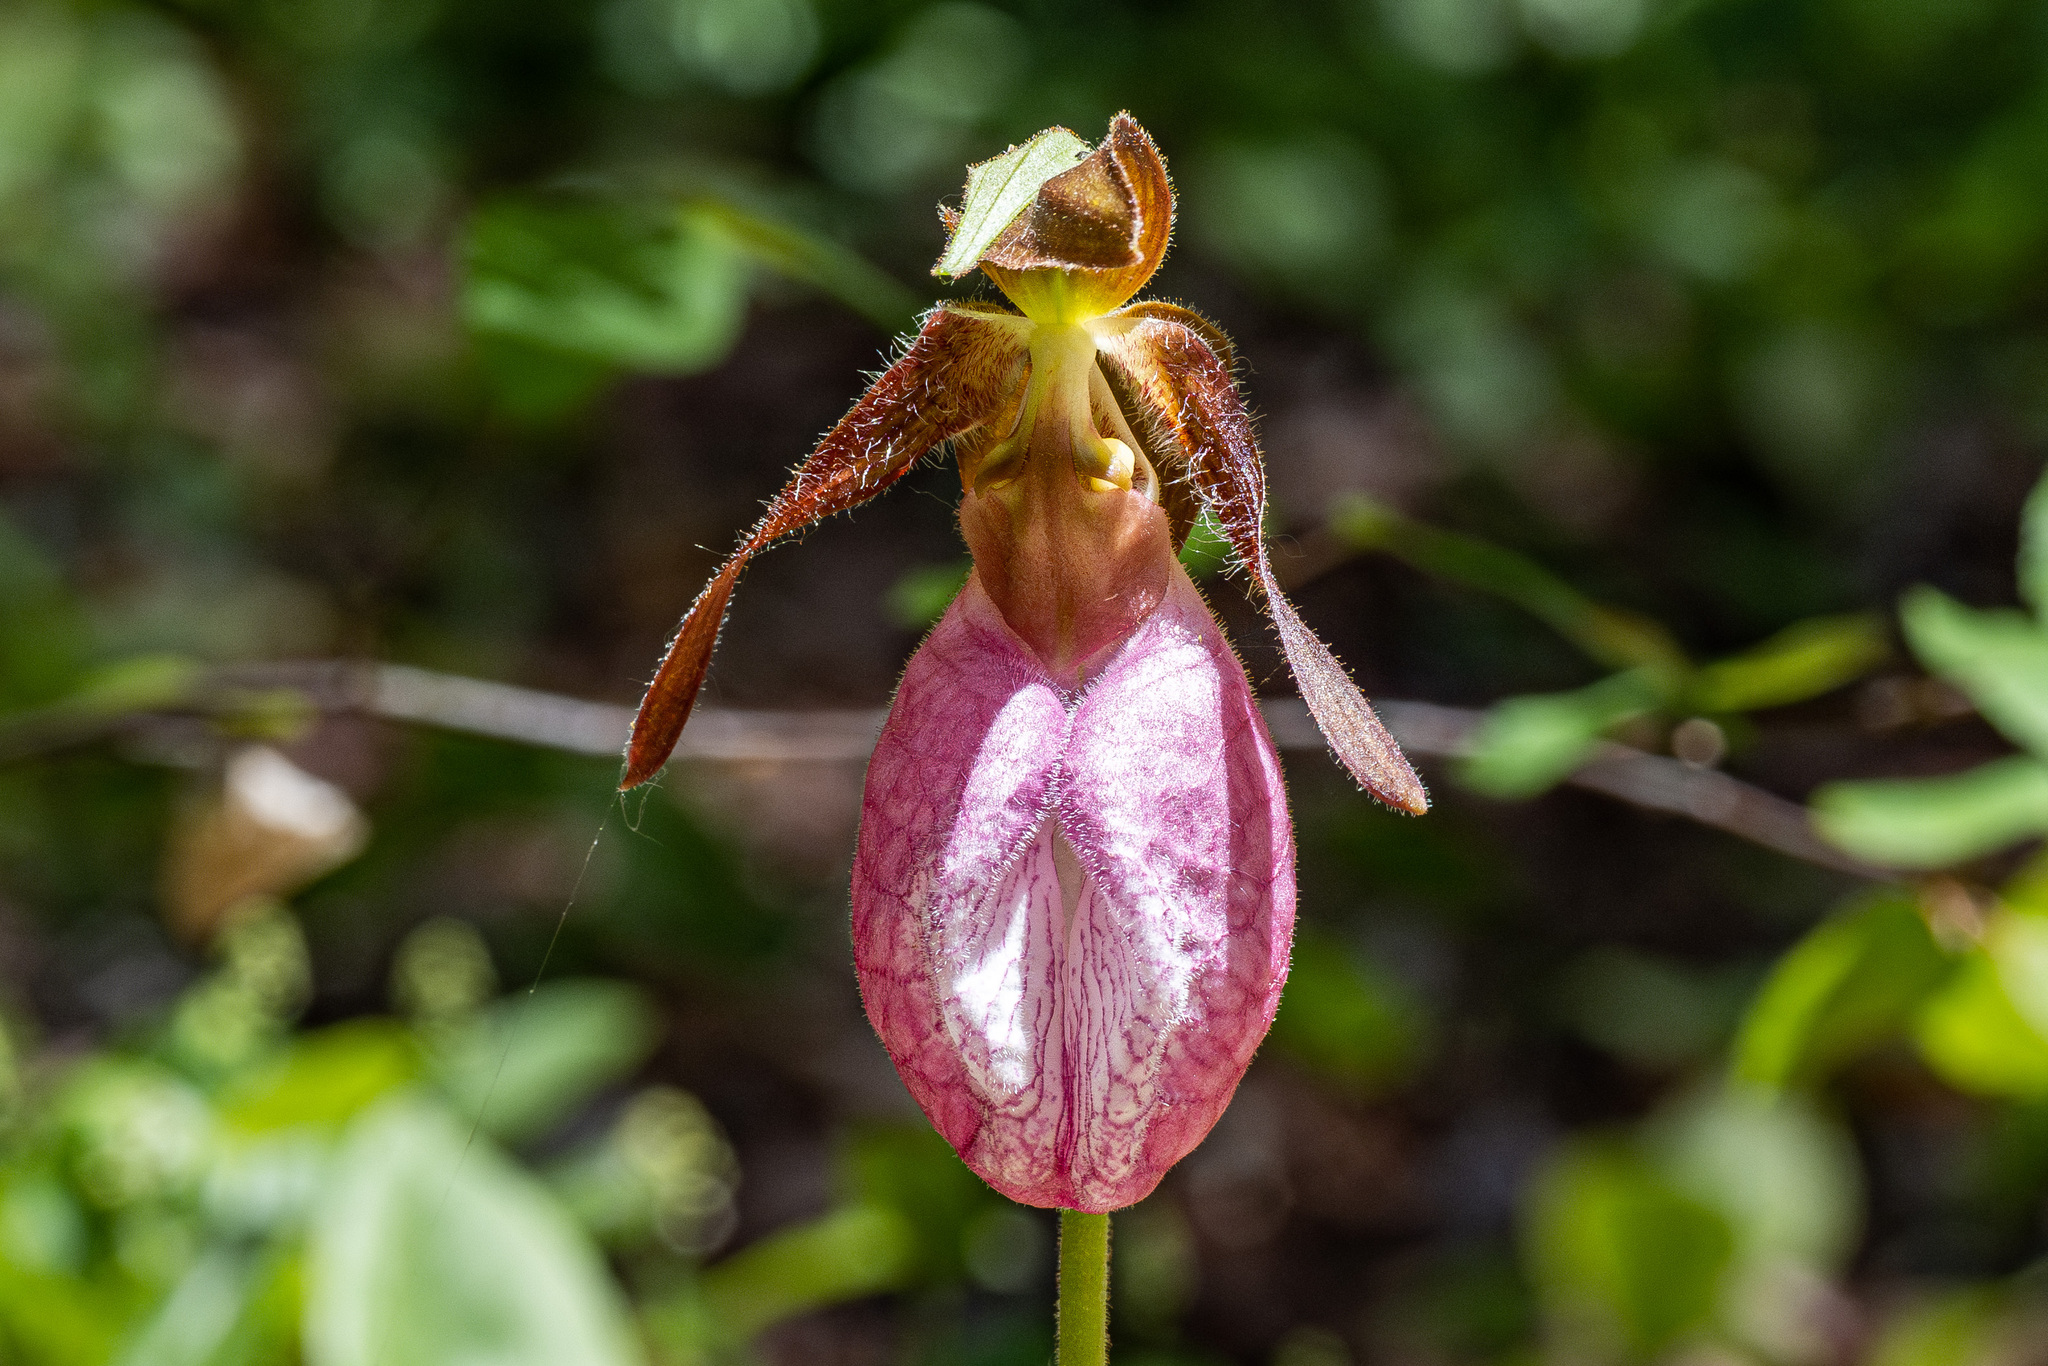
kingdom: Plantae
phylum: Tracheophyta
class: Liliopsida
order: Asparagales
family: Orchidaceae
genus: Cypripedium
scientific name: Cypripedium acaule
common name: Pink lady's-slipper
